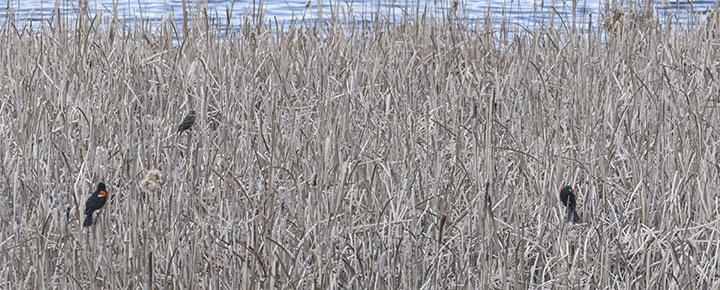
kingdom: Animalia
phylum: Chordata
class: Aves
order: Passeriformes
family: Icteridae
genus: Agelaius
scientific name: Agelaius phoeniceus
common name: Red-winged blackbird
